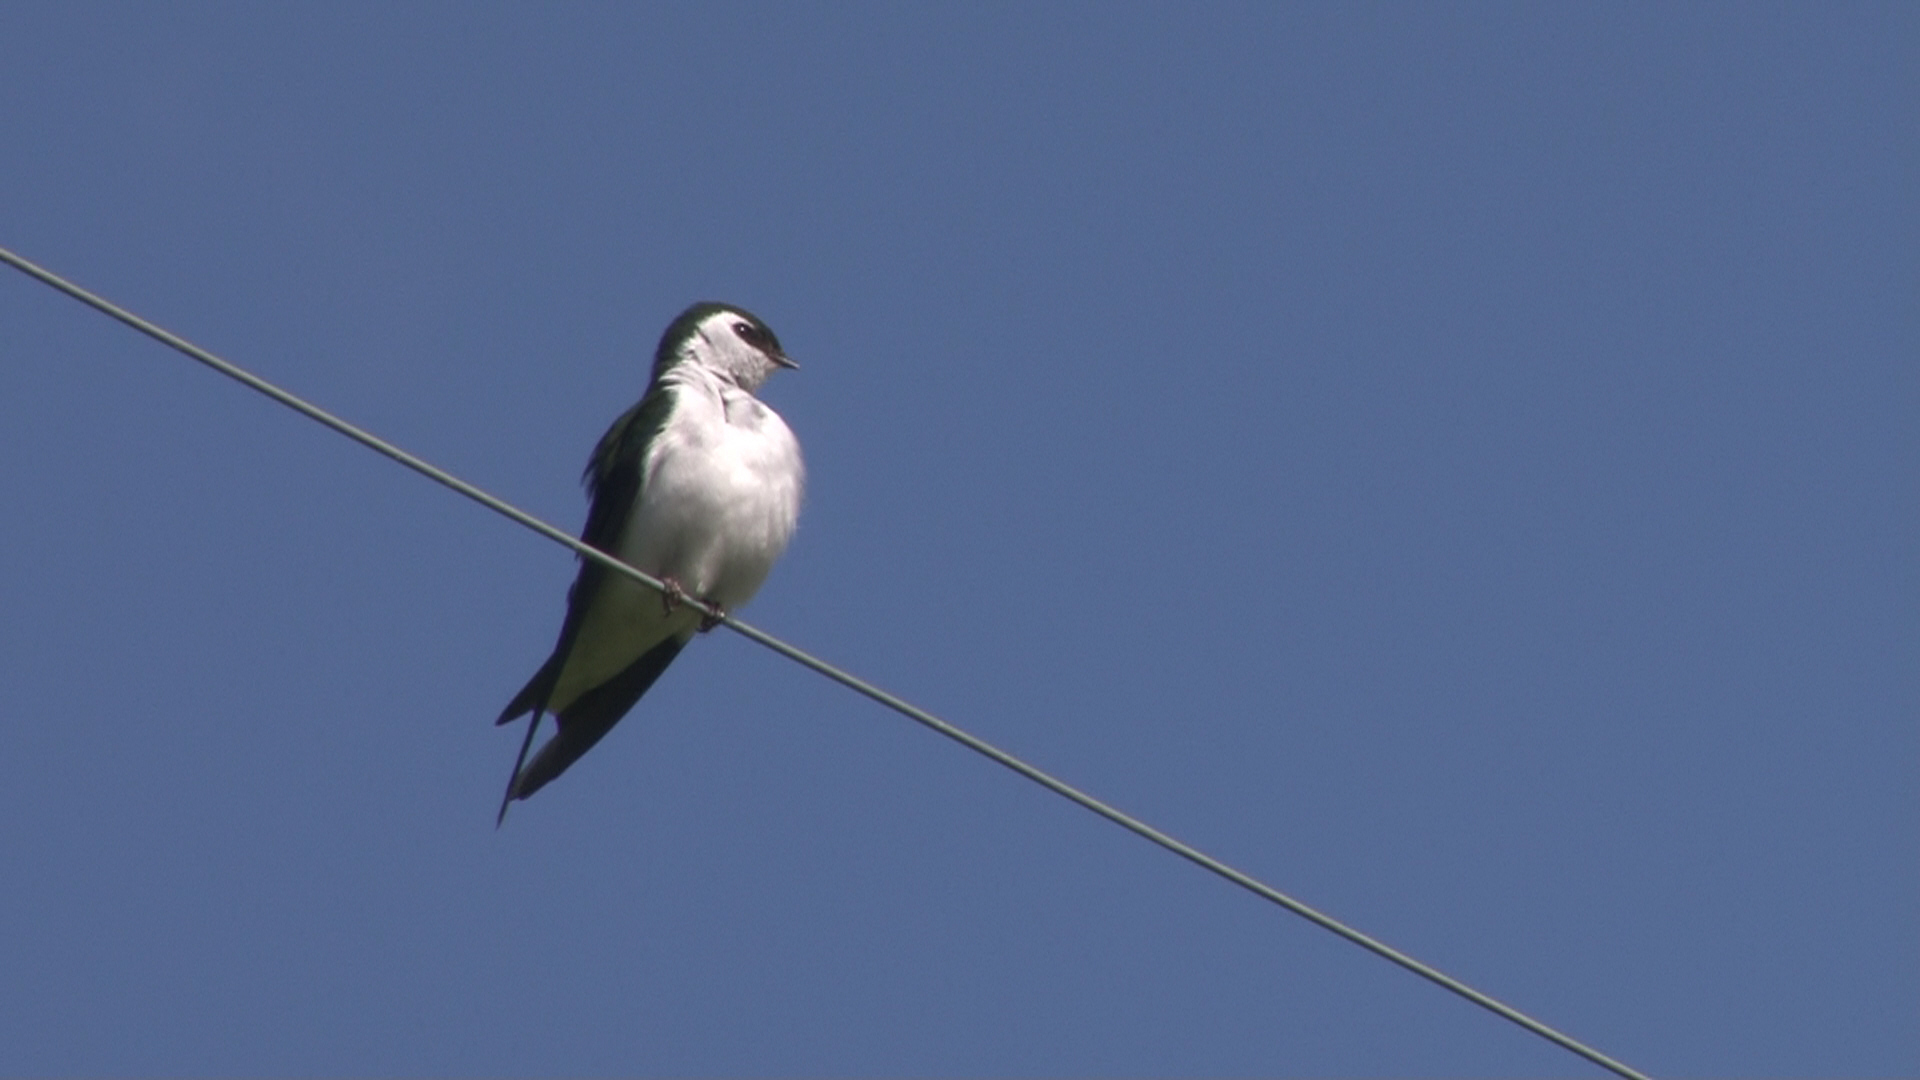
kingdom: Animalia
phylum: Chordata
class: Aves
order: Passeriformes
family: Hirundinidae
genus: Tachycineta
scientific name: Tachycineta thalassina
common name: Violet-green swallow
